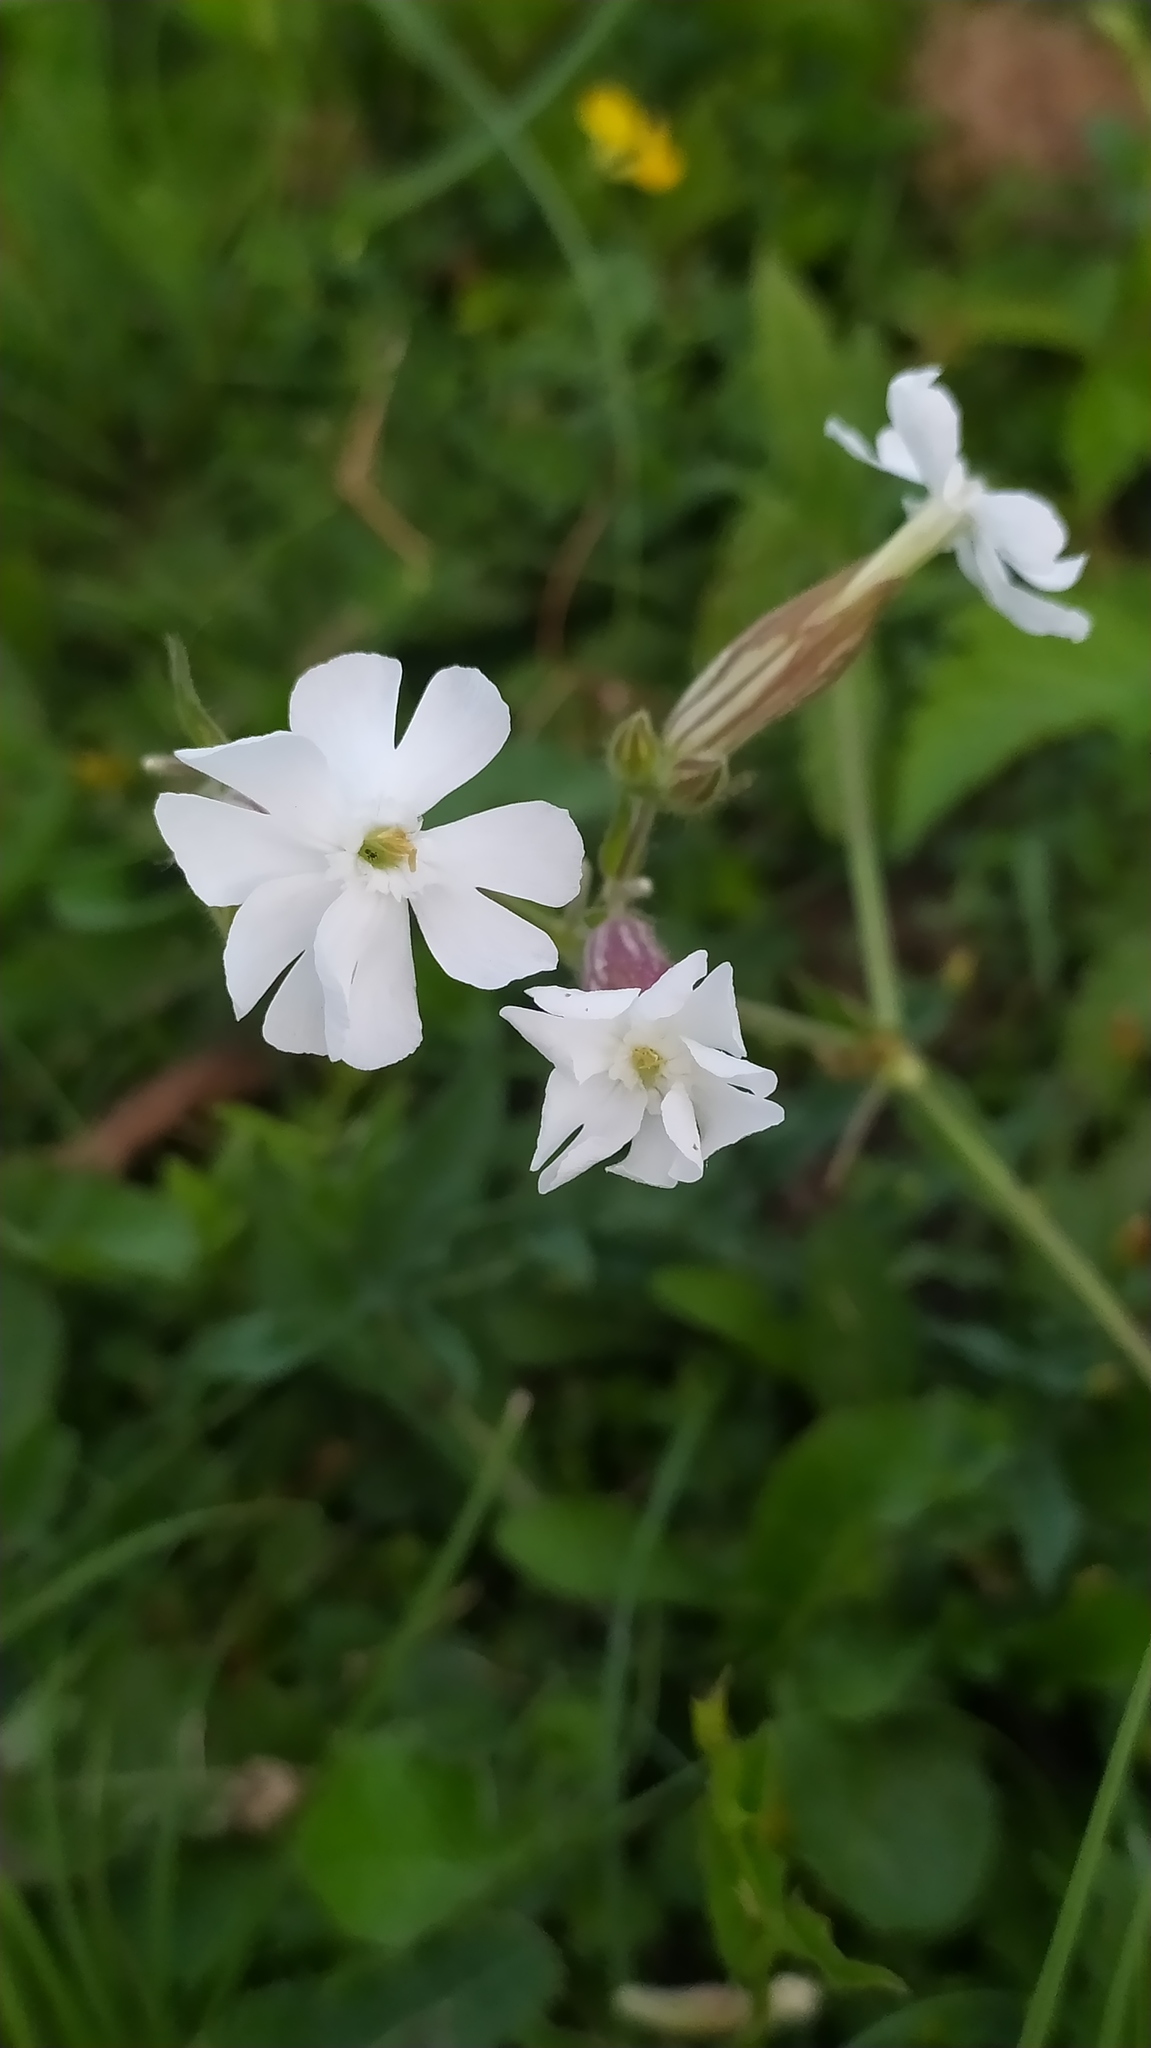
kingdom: Plantae
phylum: Tracheophyta
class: Magnoliopsida
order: Caryophyllales
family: Caryophyllaceae
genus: Silene
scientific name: Silene latifolia
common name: White campion
